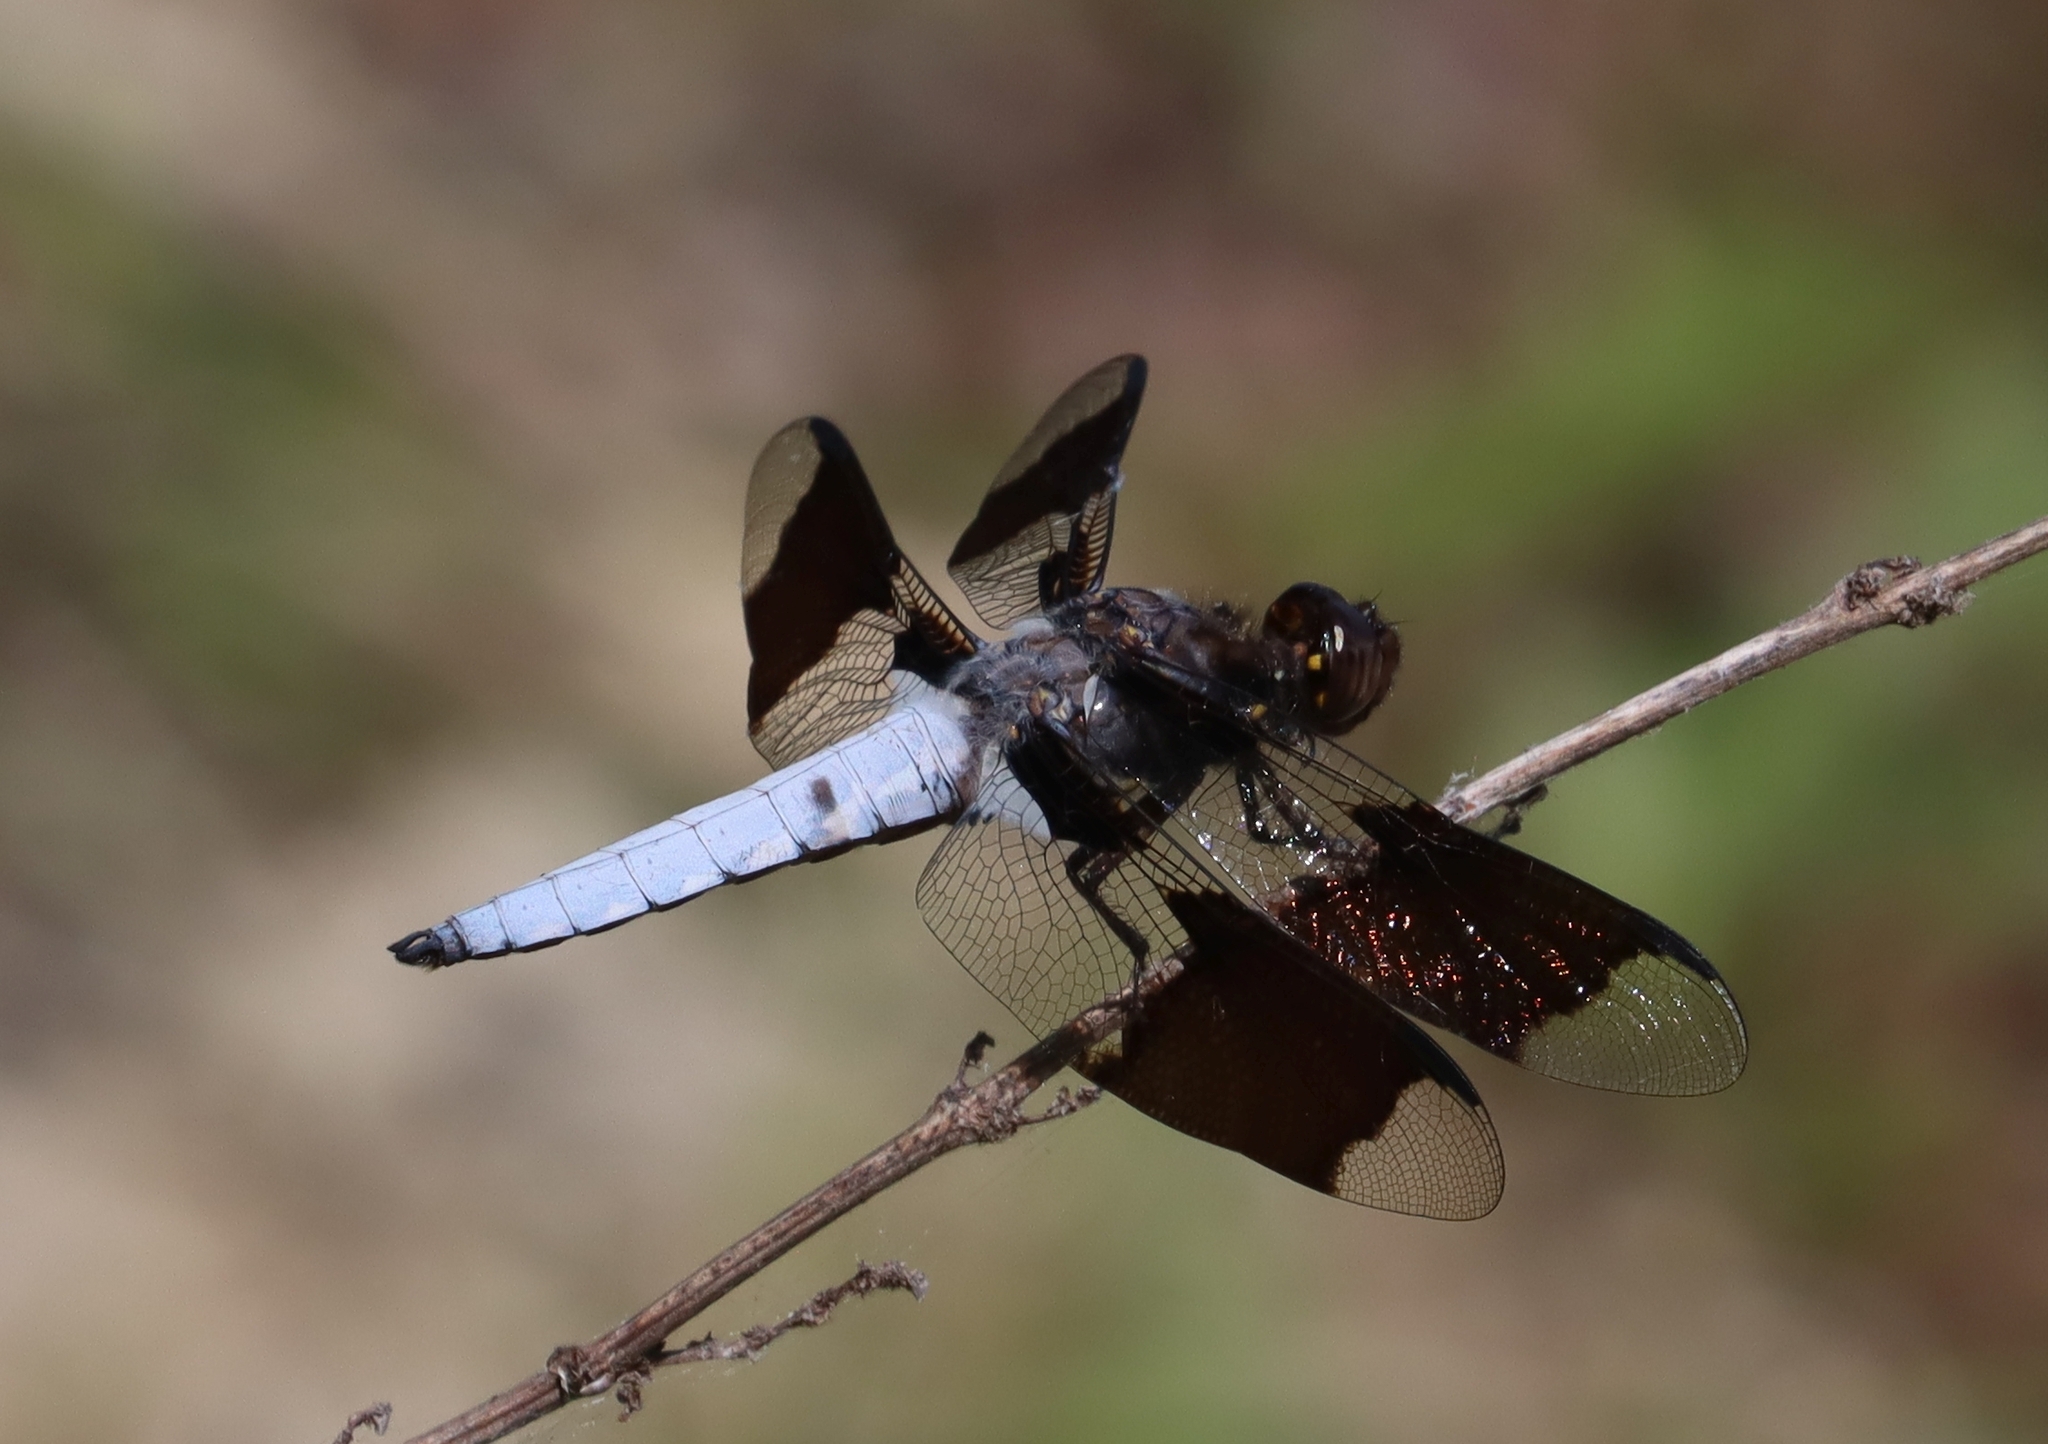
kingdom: Animalia
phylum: Arthropoda
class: Insecta
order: Odonata
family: Libellulidae
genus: Plathemis
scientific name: Plathemis lydia
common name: Common whitetail
